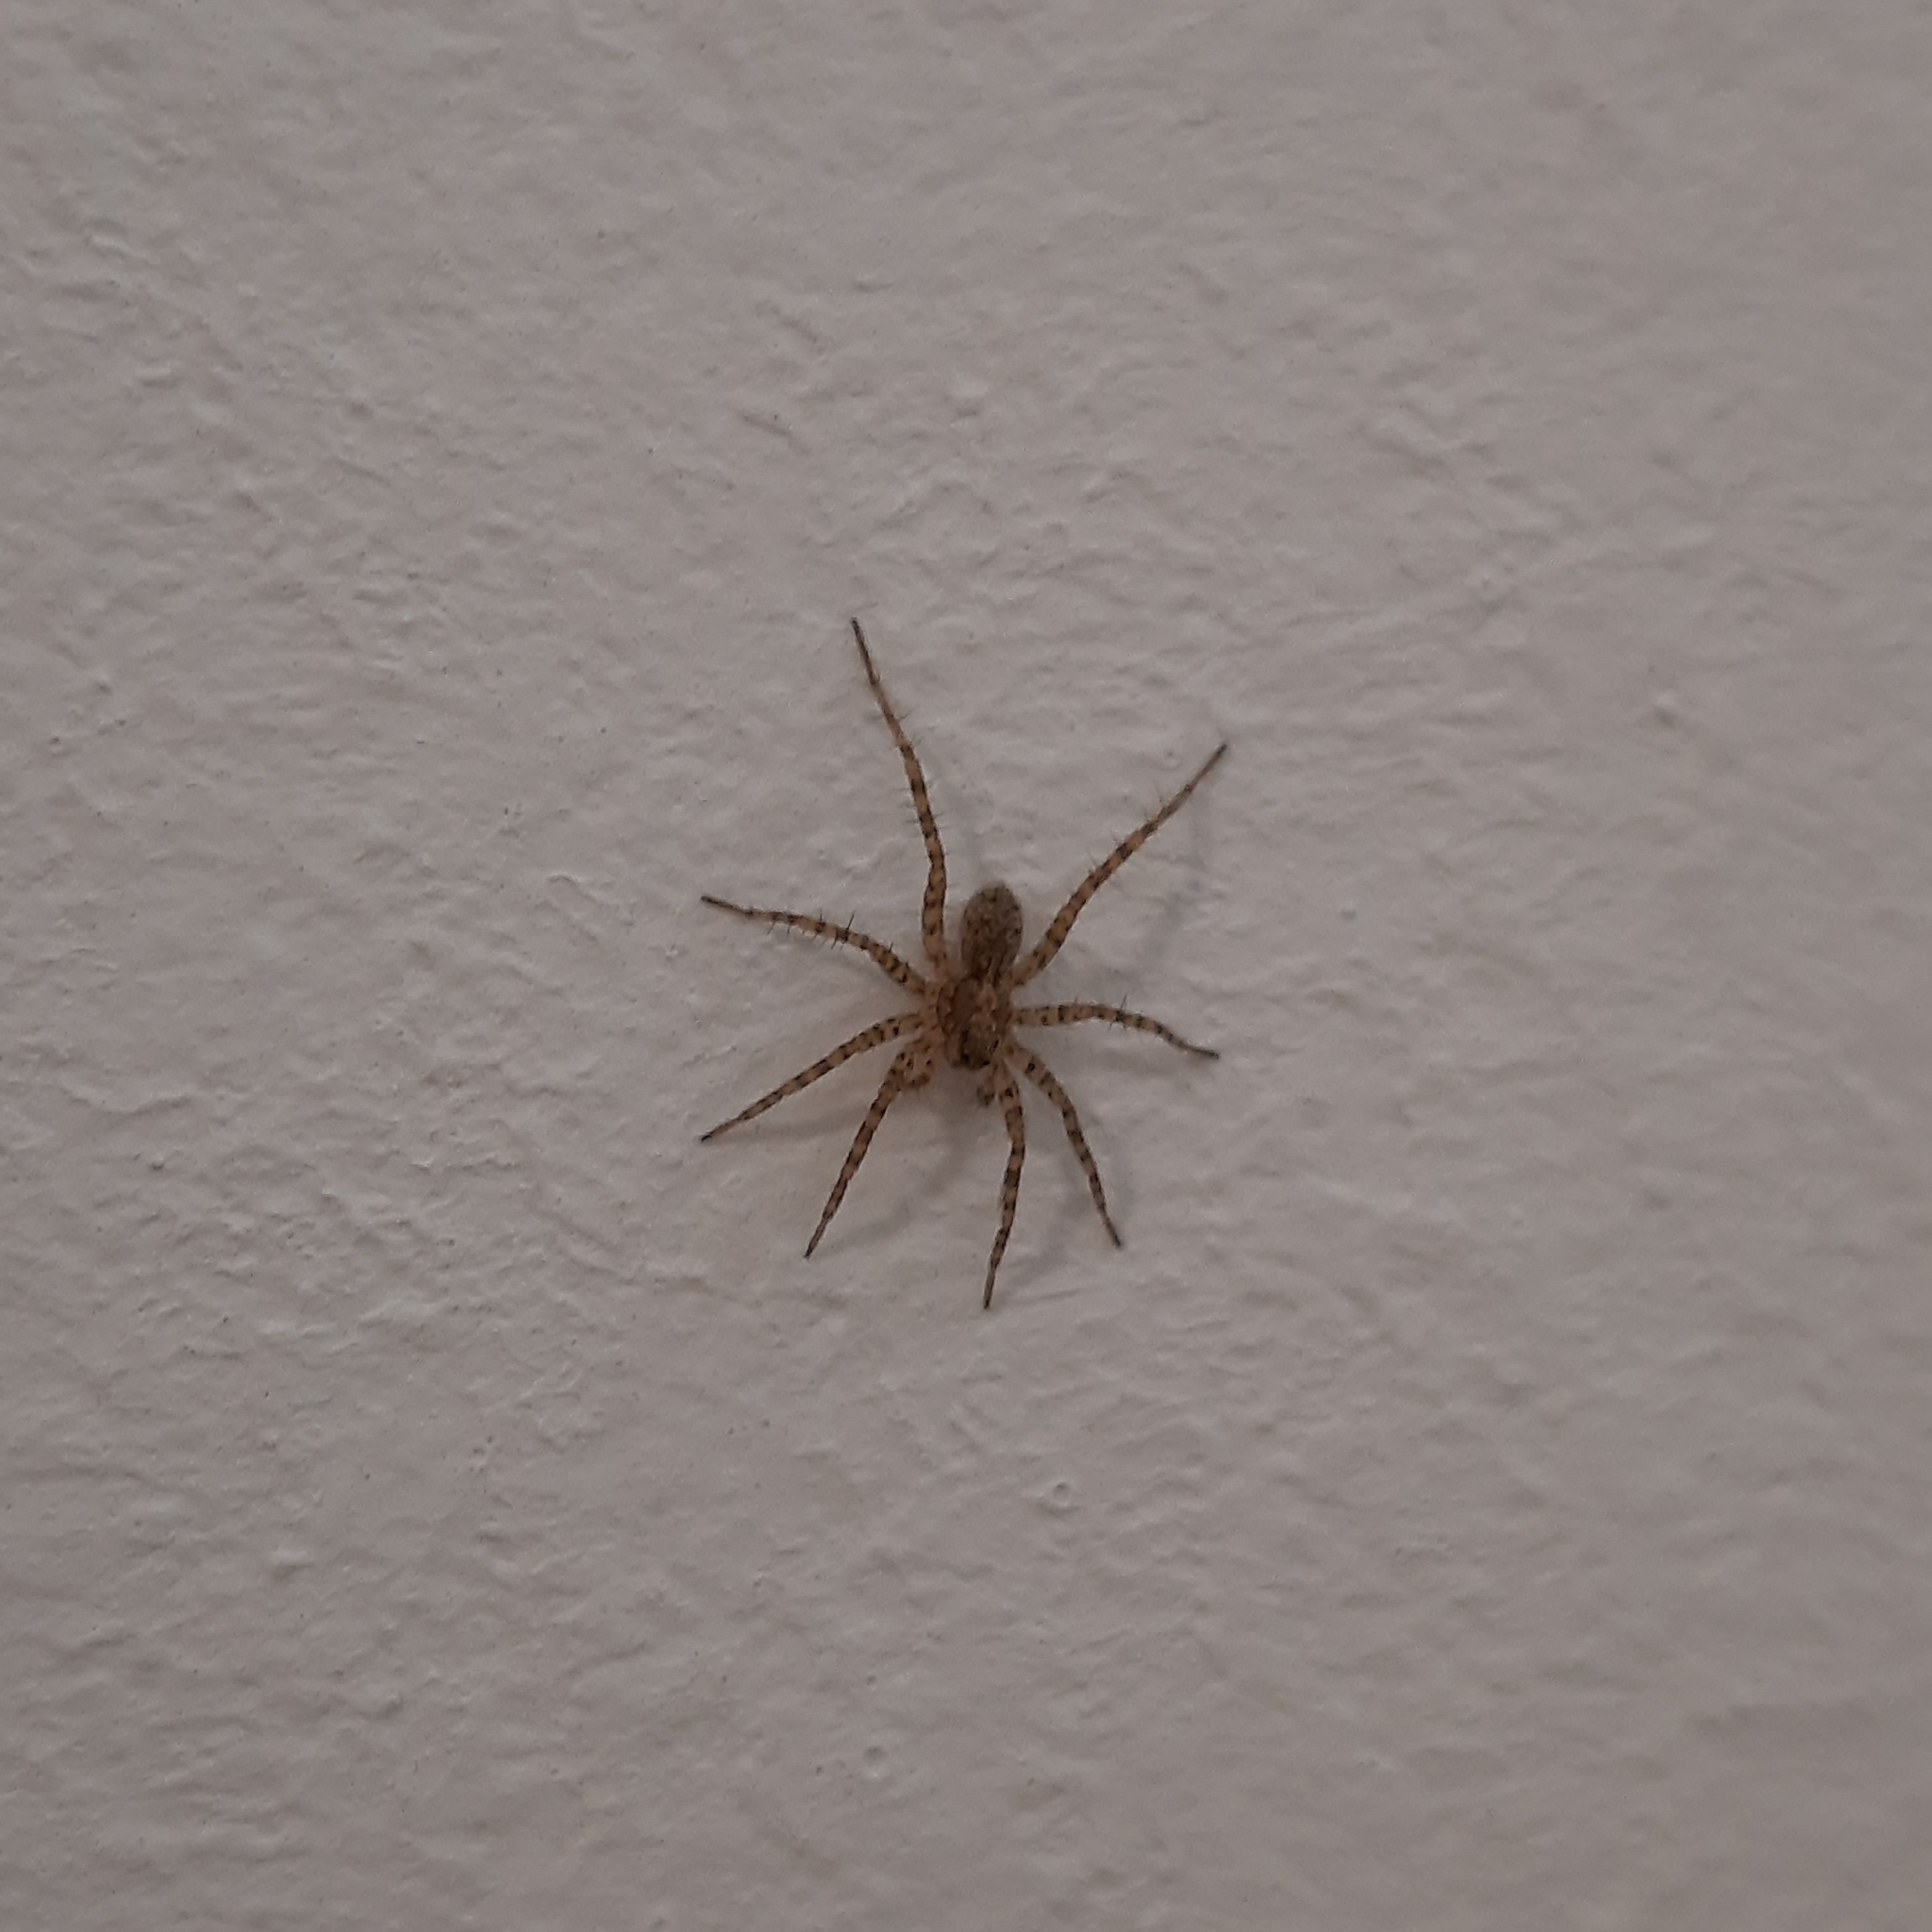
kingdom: Animalia
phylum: Arthropoda
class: Arachnida
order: Araneae
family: Lycosidae
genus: Pardosa
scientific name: Pardosa
